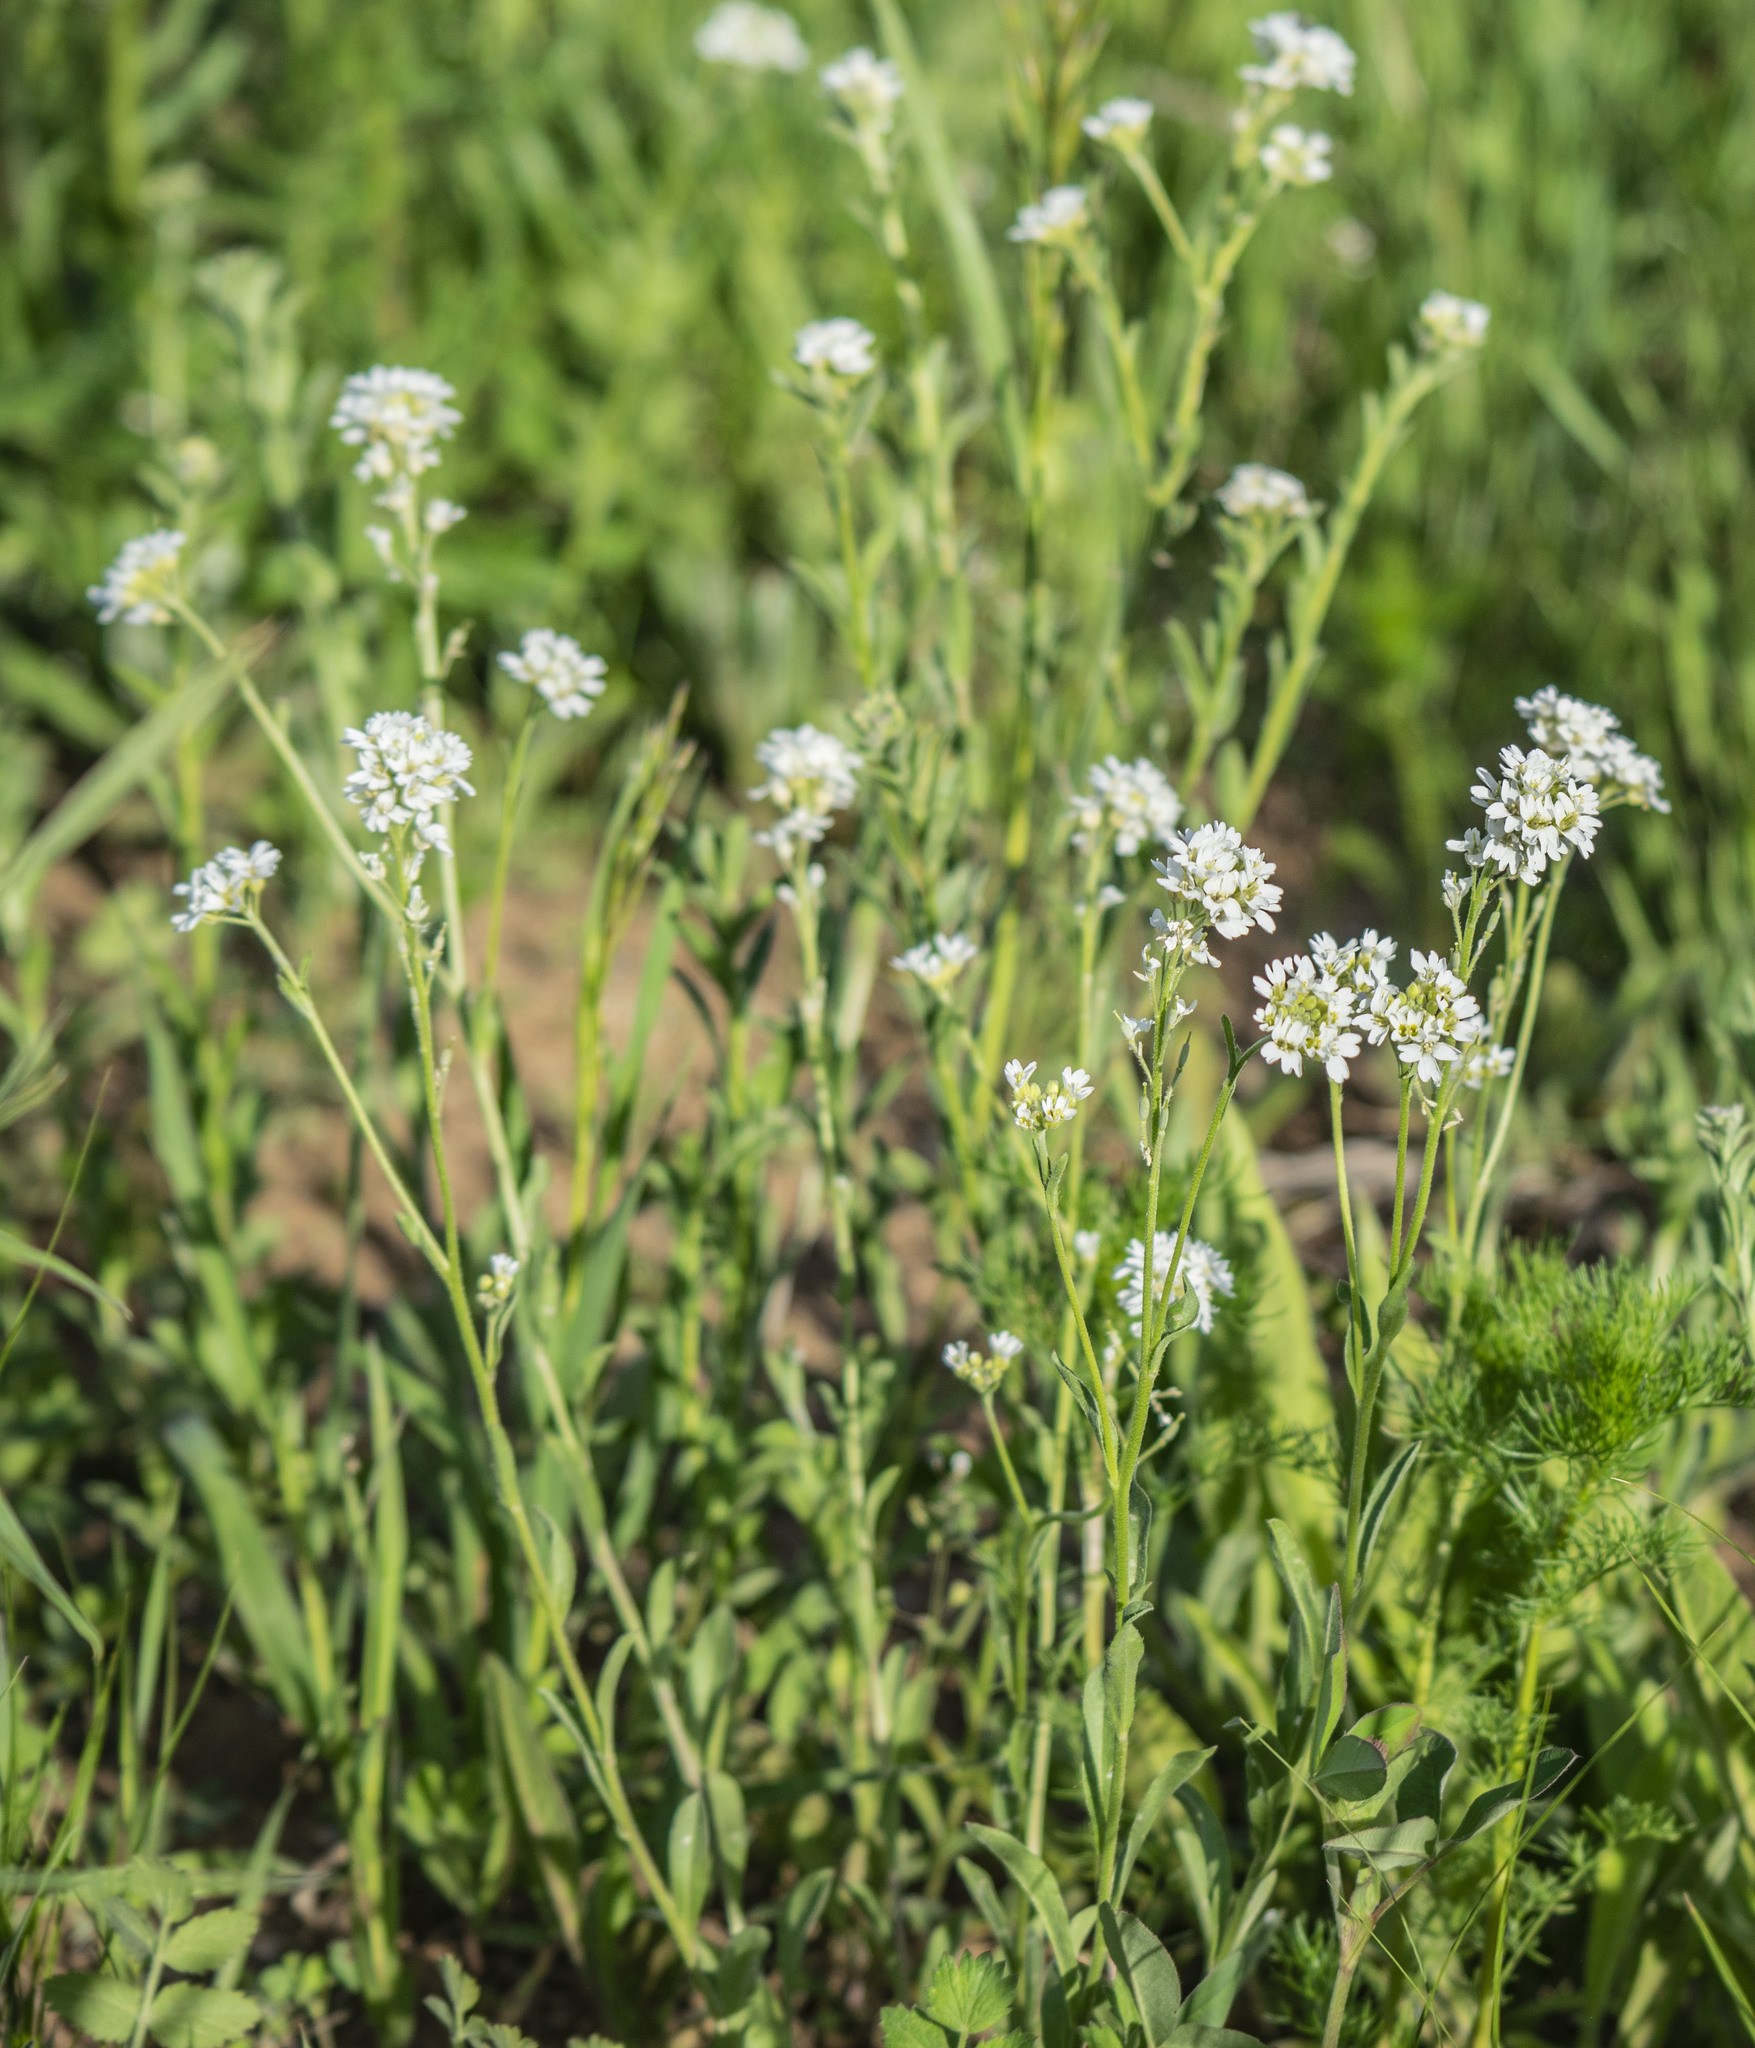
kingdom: Plantae
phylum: Tracheophyta
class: Magnoliopsida
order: Brassicales
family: Brassicaceae
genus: Berteroa
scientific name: Berteroa incana
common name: Hoary alison
